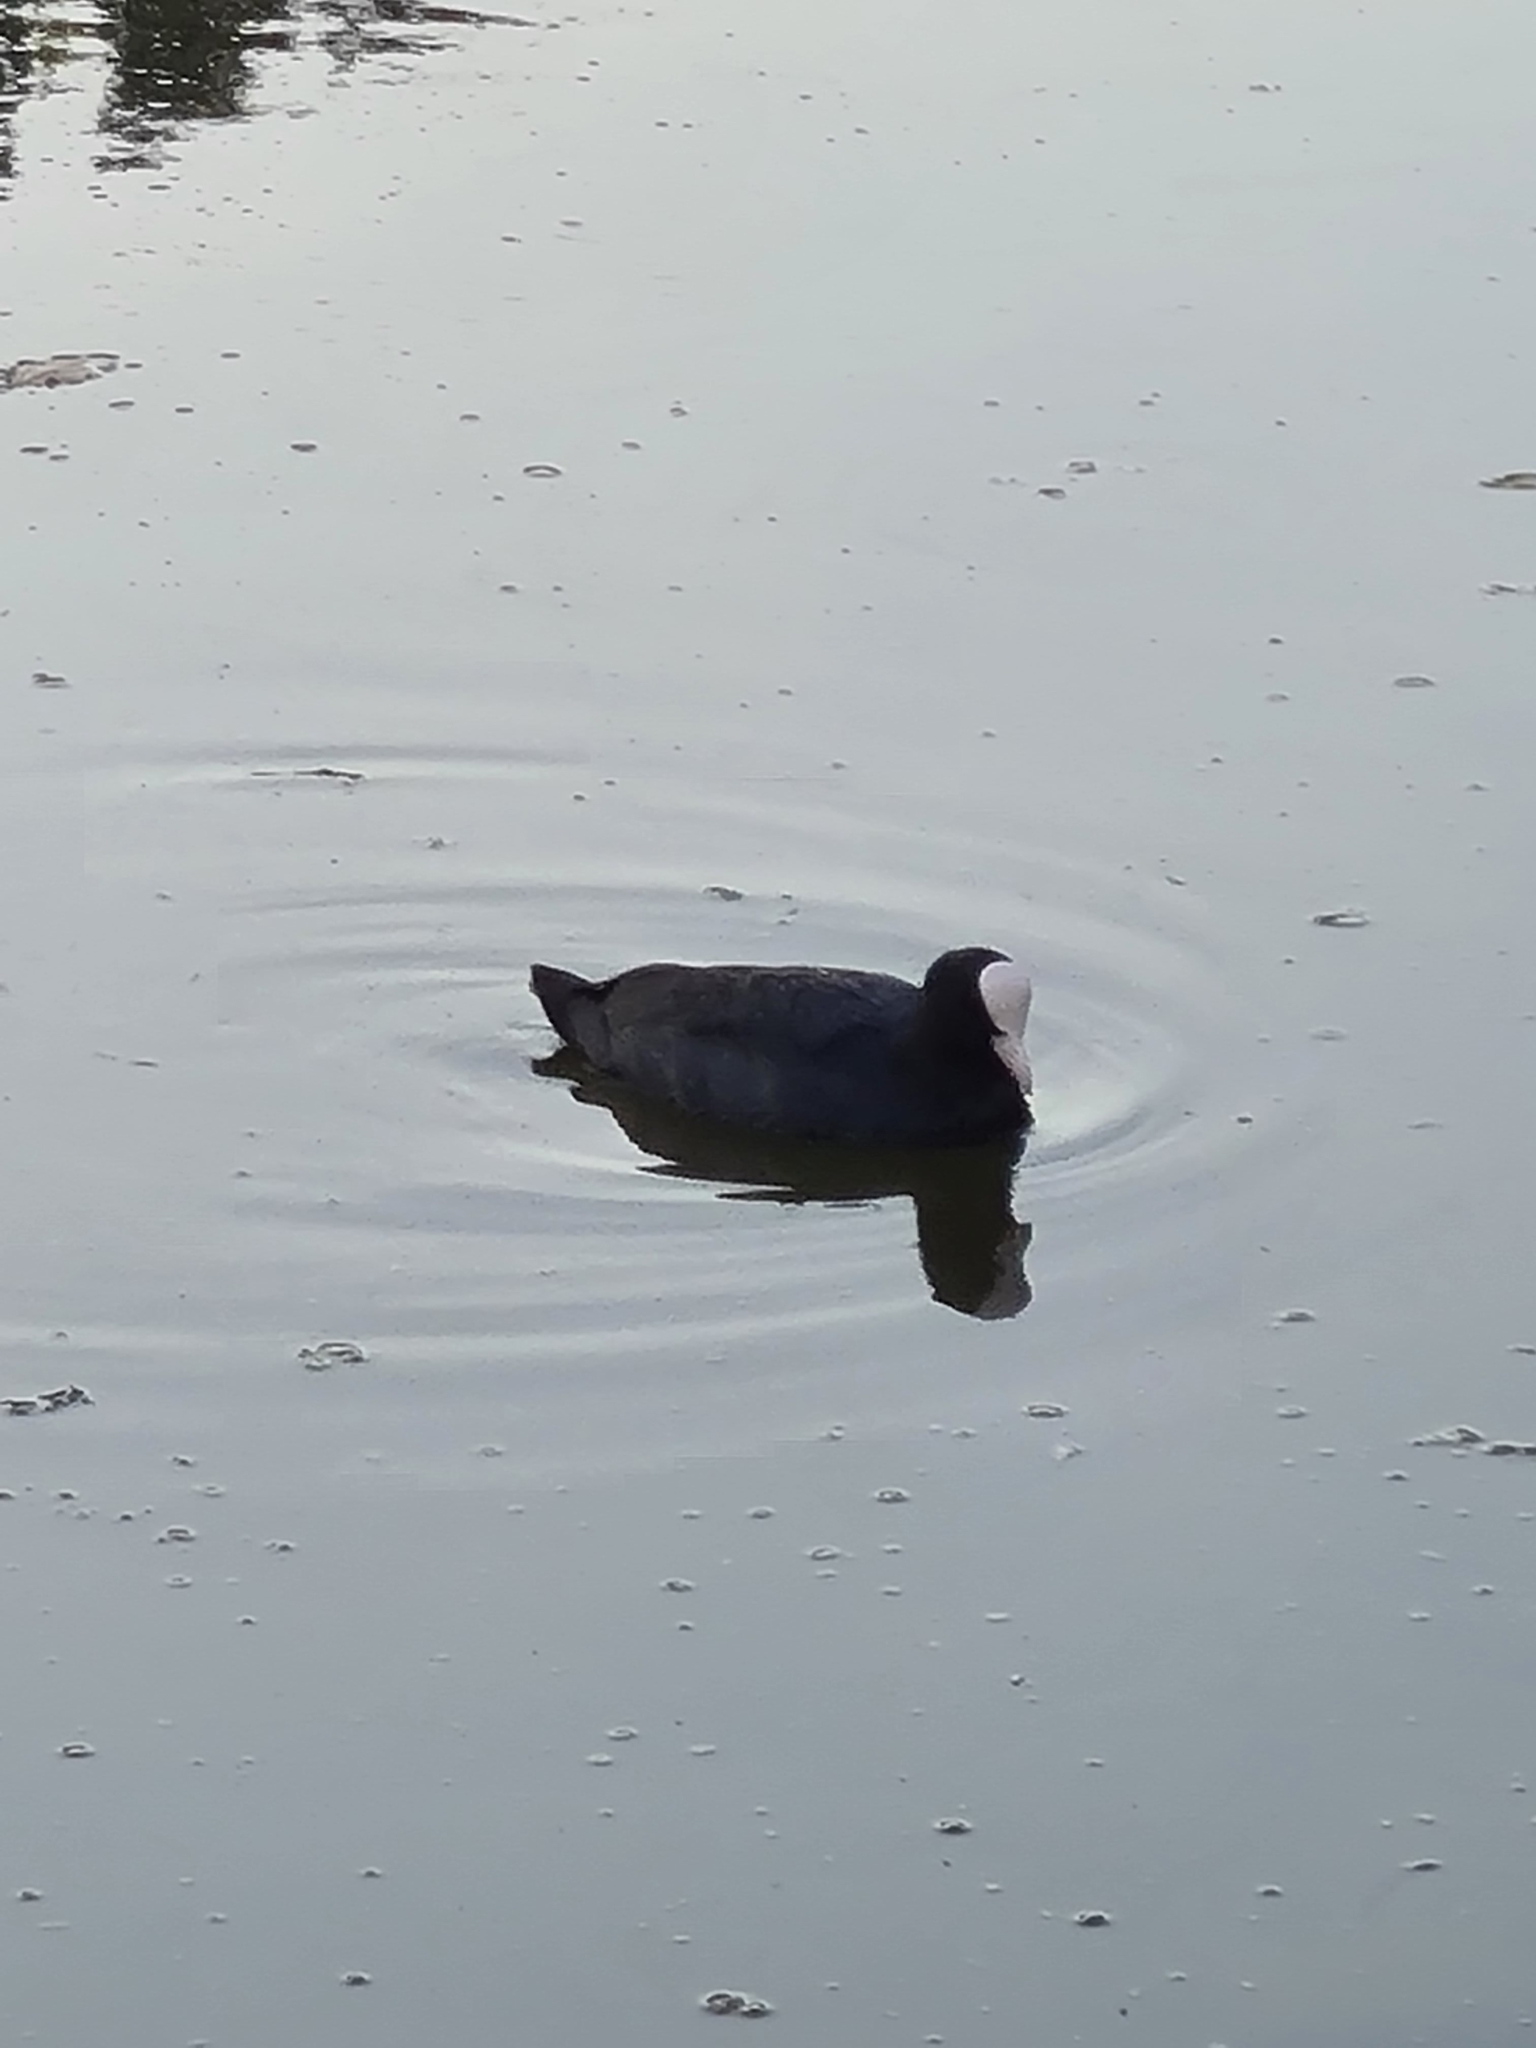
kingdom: Animalia
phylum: Chordata
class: Aves
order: Gruiformes
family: Rallidae
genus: Fulica
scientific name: Fulica atra
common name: Eurasian coot
